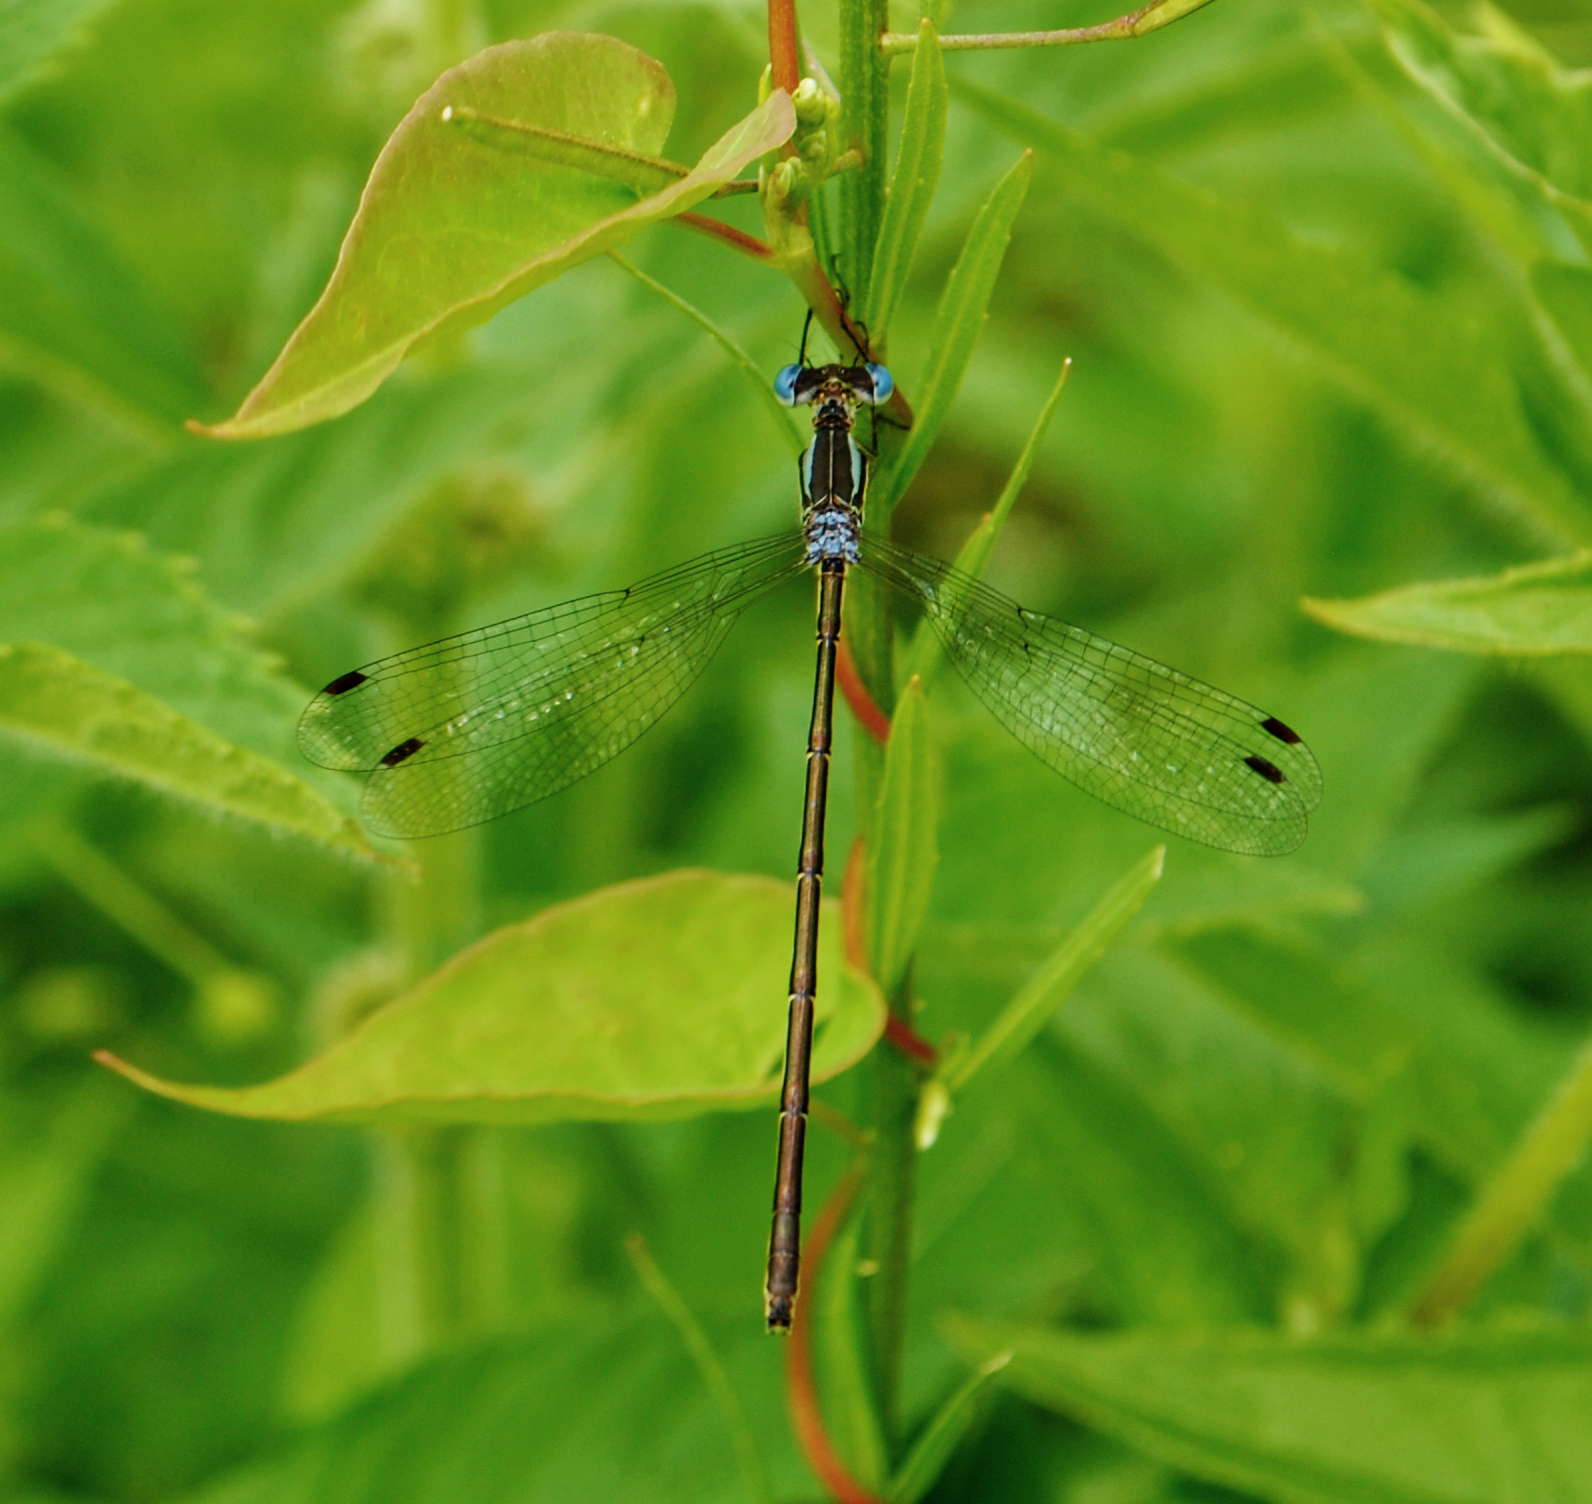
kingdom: Animalia
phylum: Arthropoda
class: Insecta
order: Odonata
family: Lestidae
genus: Lestes
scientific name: Lestes rectangularis
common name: Slender spreadwing
